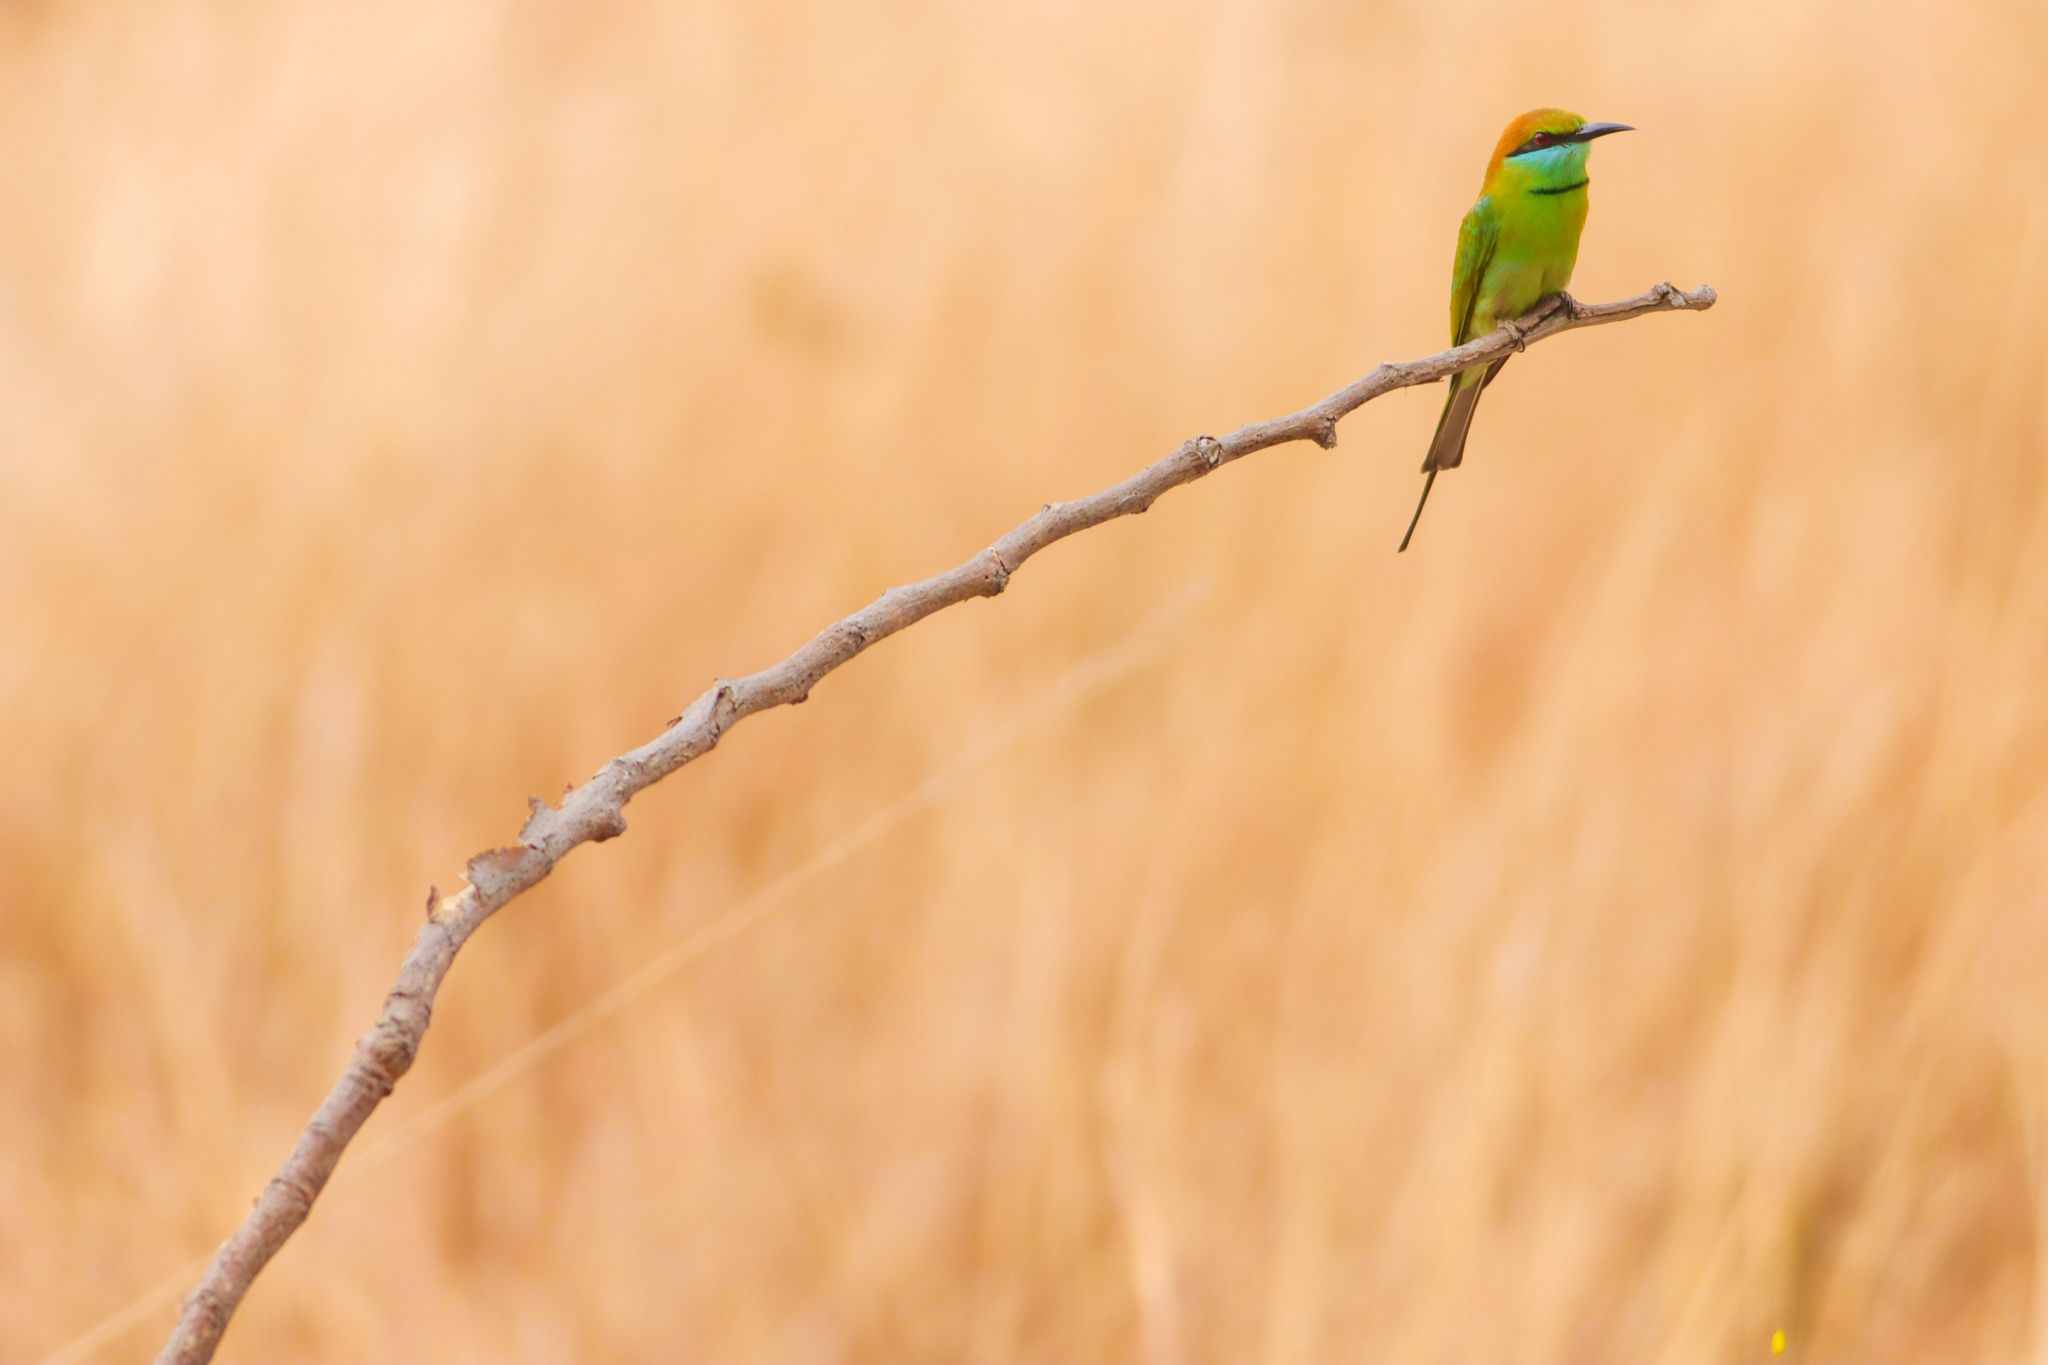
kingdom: Animalia
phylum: Chordata
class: Aves
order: Coraciiformes
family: Meropidae
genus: Merops
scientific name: Merops orientalis
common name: Green bee-eater
